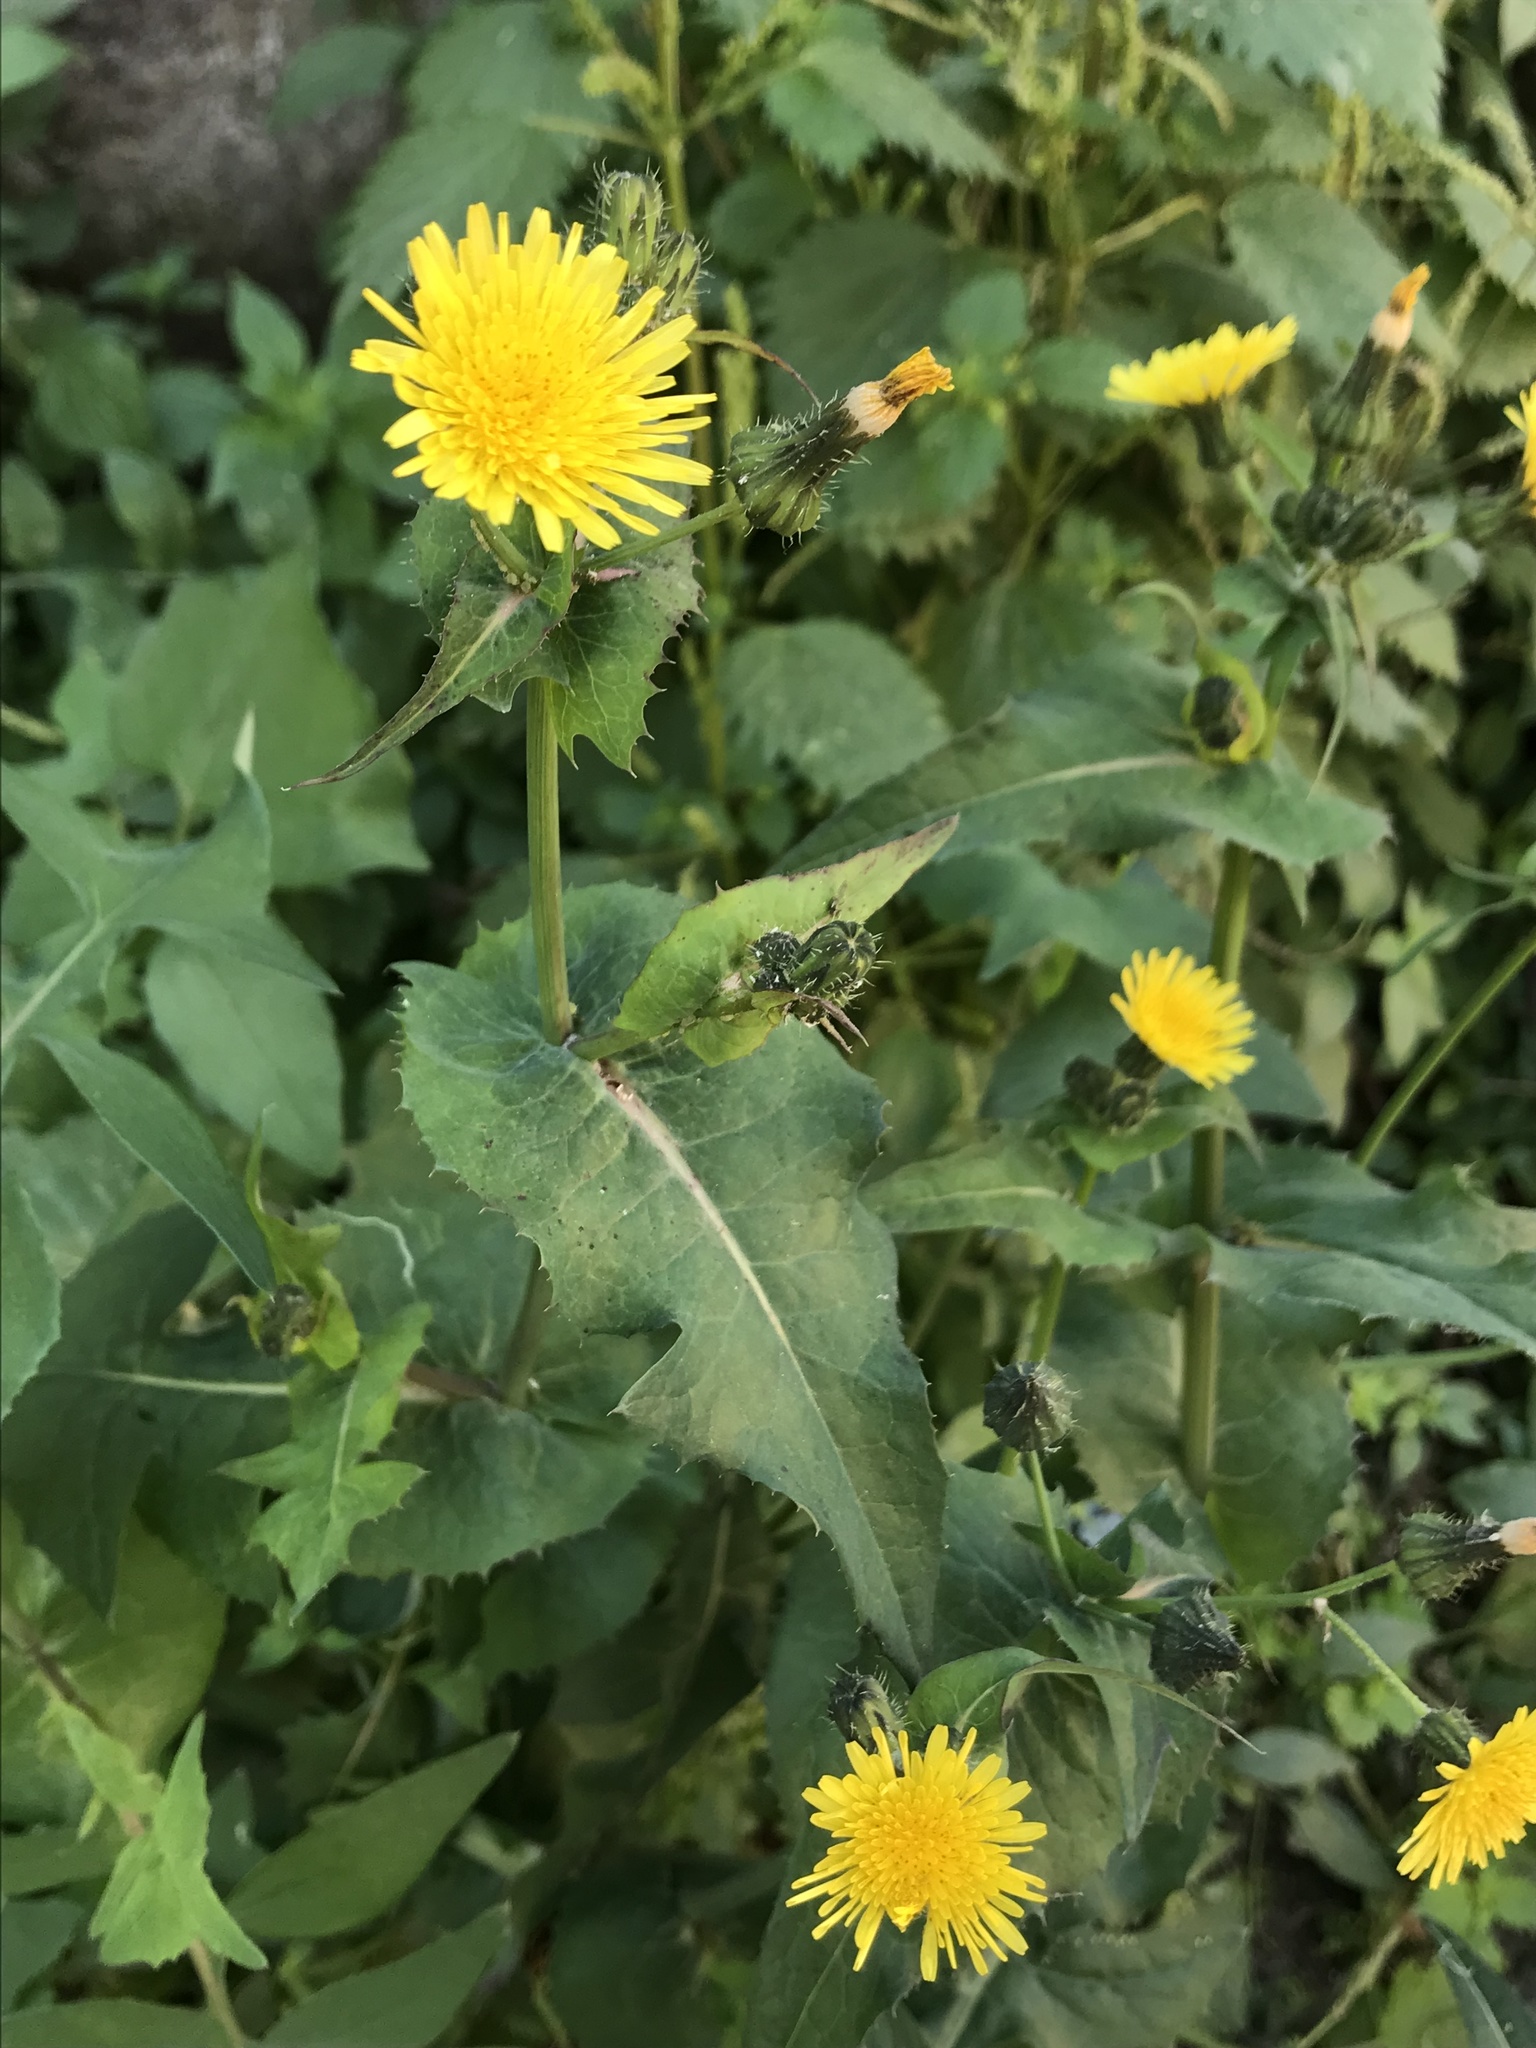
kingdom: Plantae
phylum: Tracheophyta
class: Magnoliopsida
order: Asterales
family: Asteraceae
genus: Sonchus
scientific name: Sonchus oleraceus
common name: Common sowthistle
